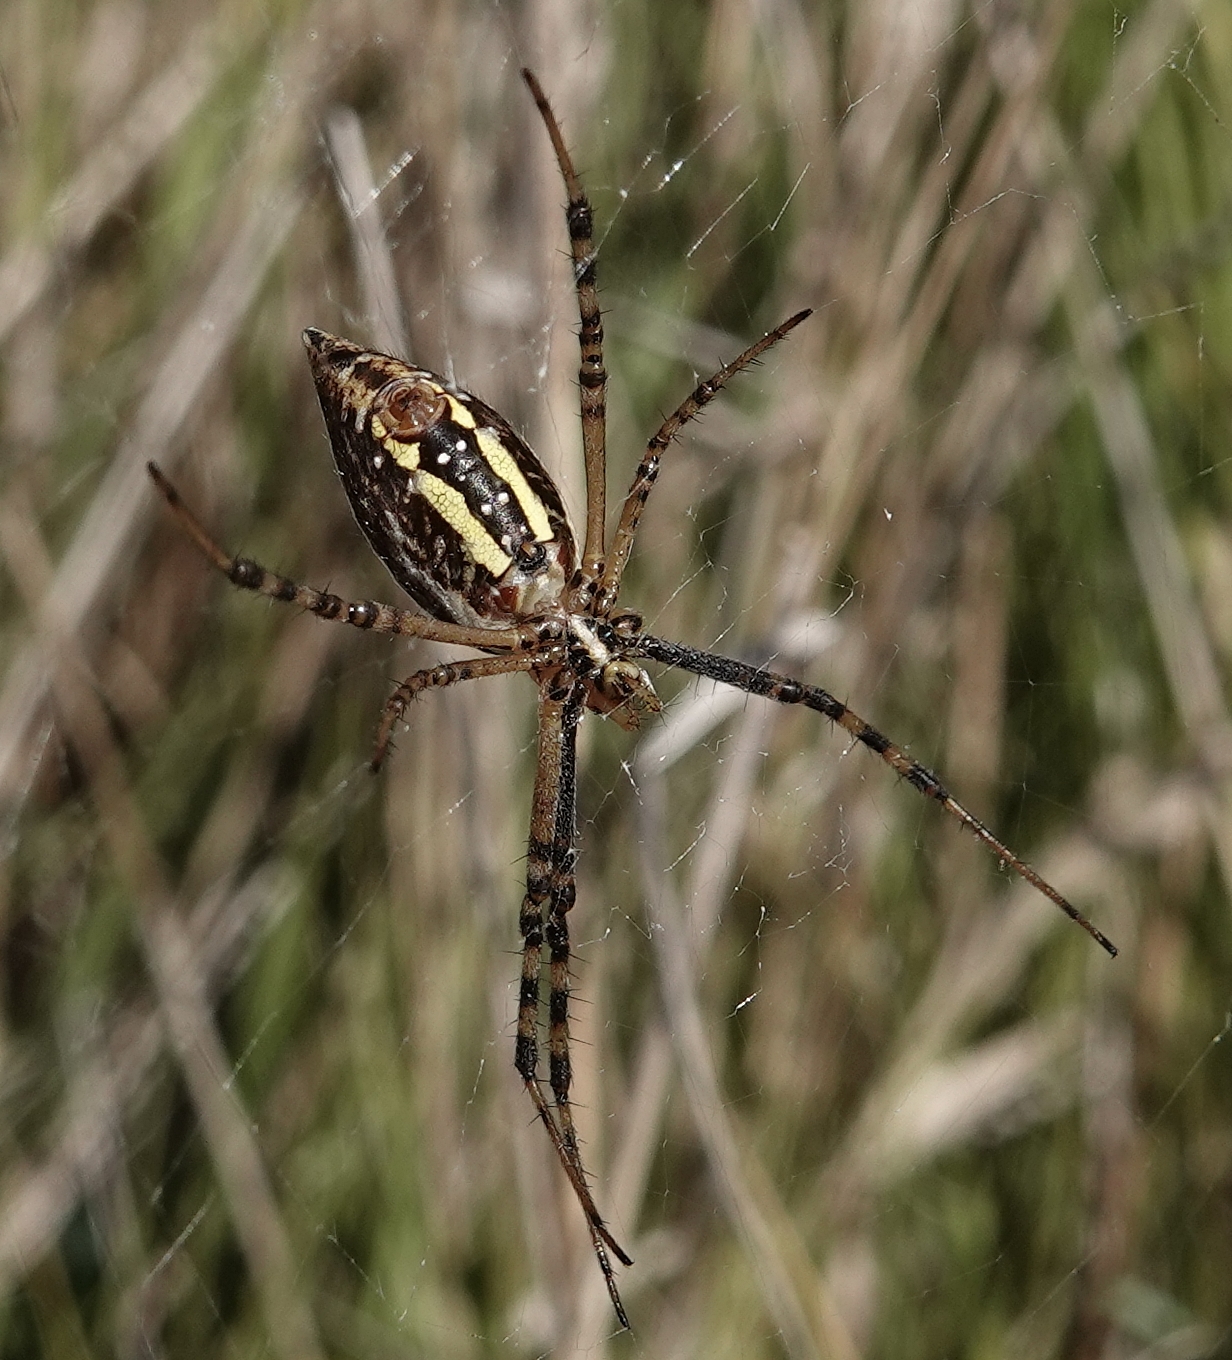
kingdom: Animalia
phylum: Arthropoda
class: Arachnida
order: Araneae
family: Araneidae
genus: Argiope
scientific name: Argiope trifasciata
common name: Banded garden spider
